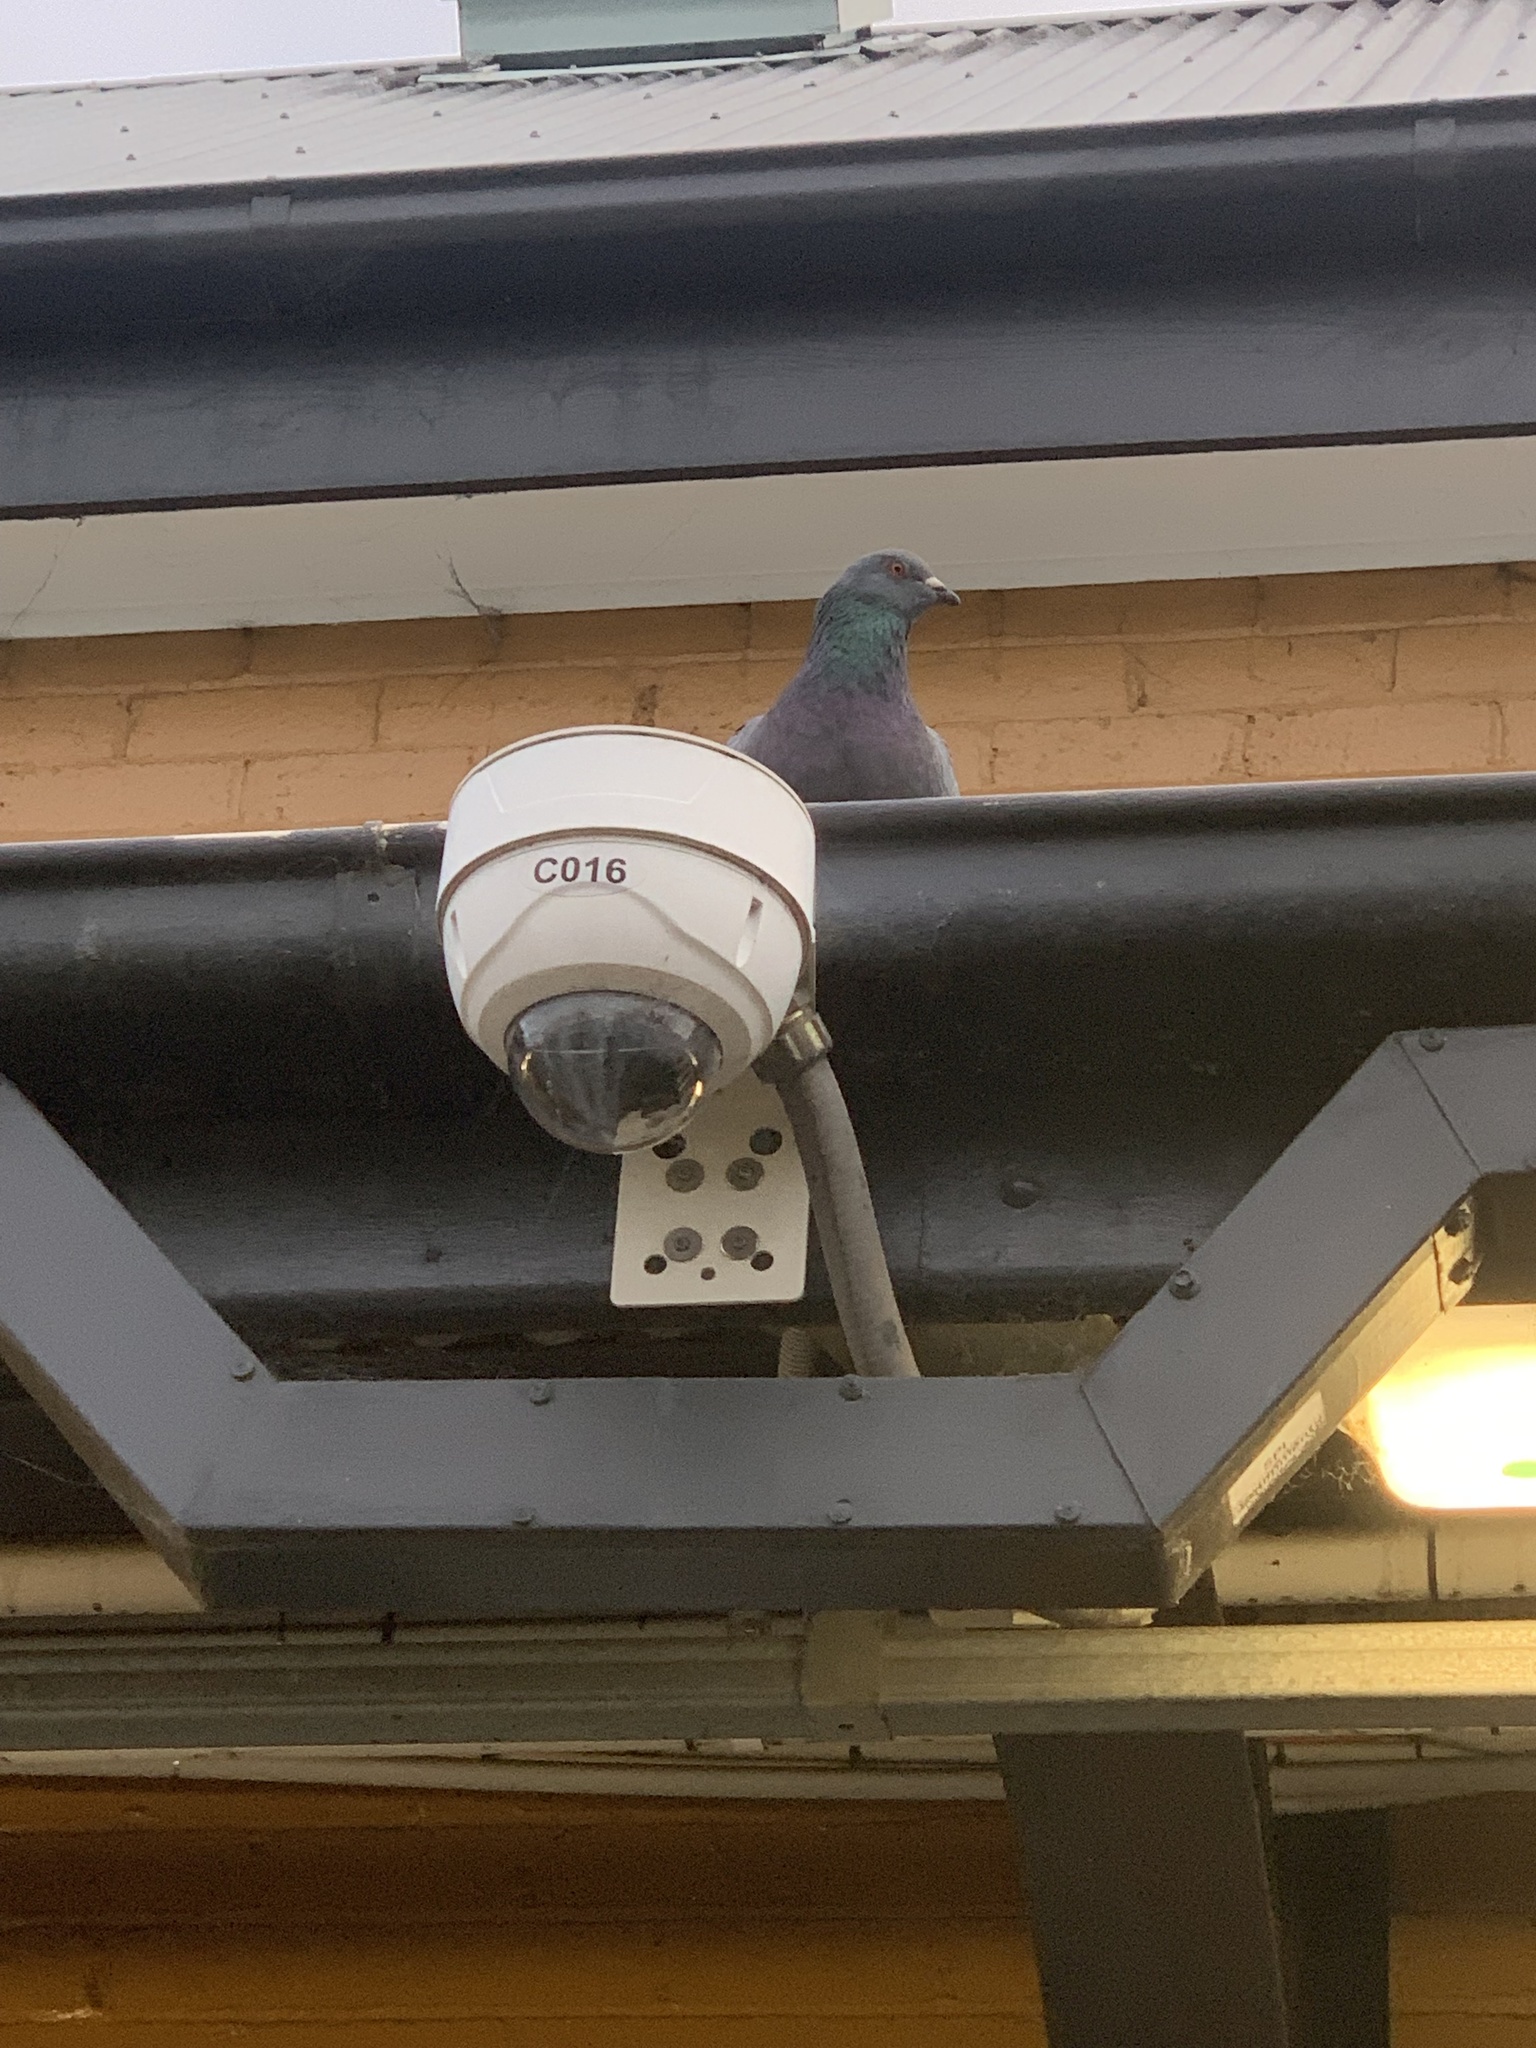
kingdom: Animalia
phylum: Chordata
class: Aves
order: Columbiformes
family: Columbidae
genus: Columba
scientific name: Columba livia
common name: Rock pigeon
